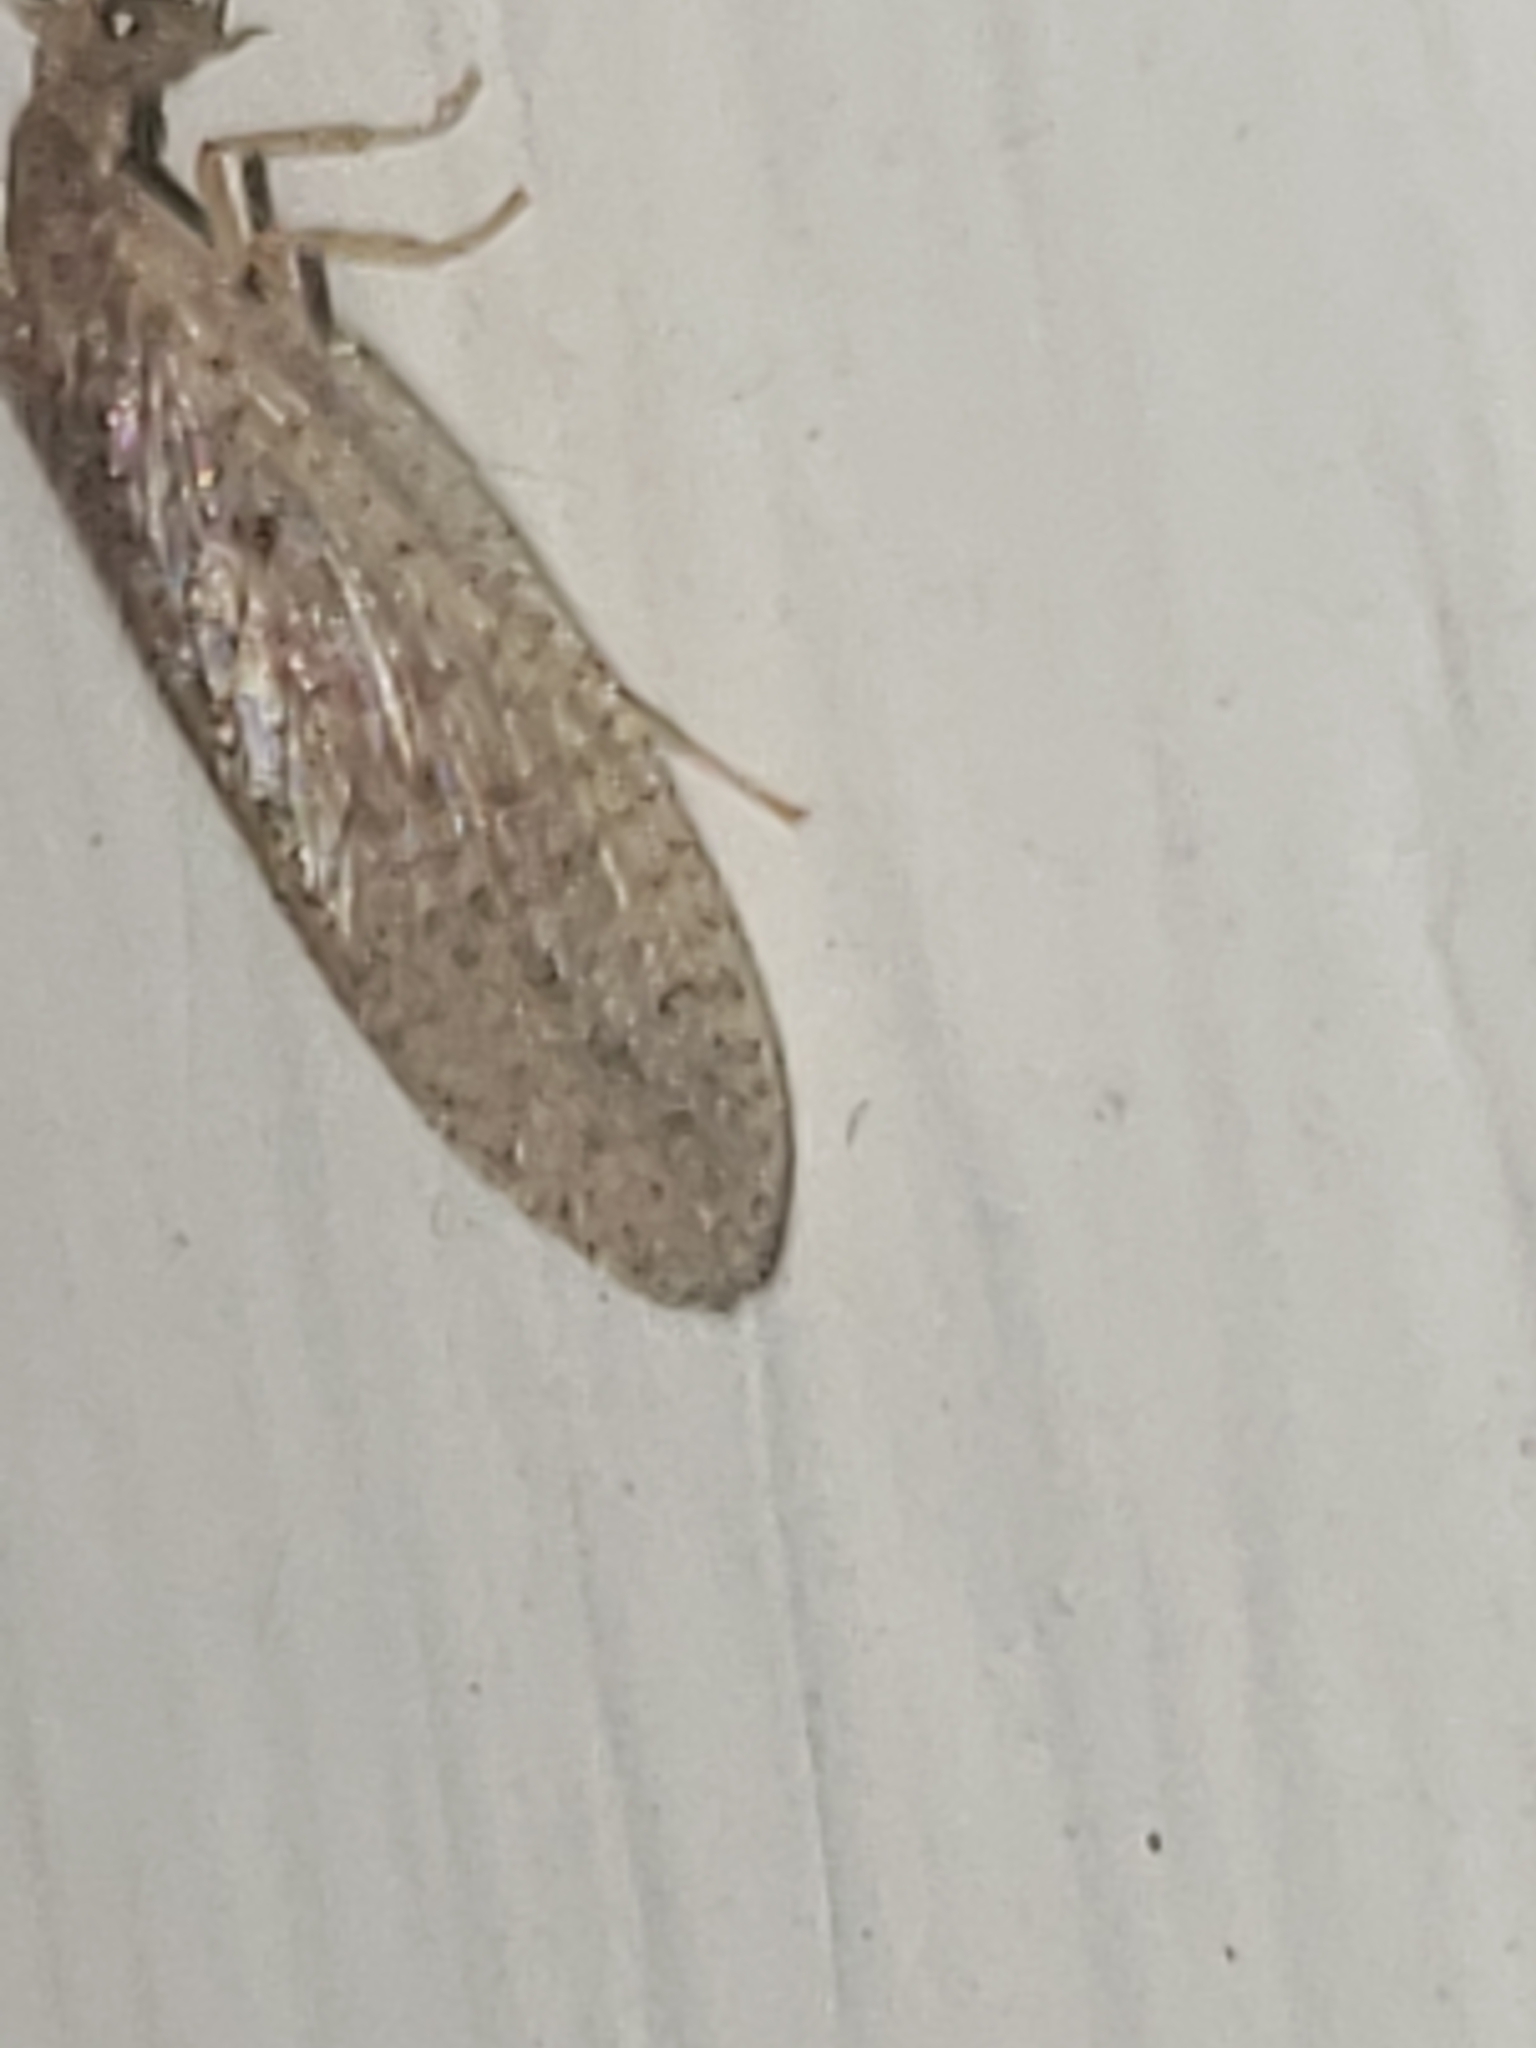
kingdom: Animalia
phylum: Arthropoda
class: Insecta
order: Neuroptera
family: Hemerobiidae
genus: Micromus
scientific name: Micromus subanticus
